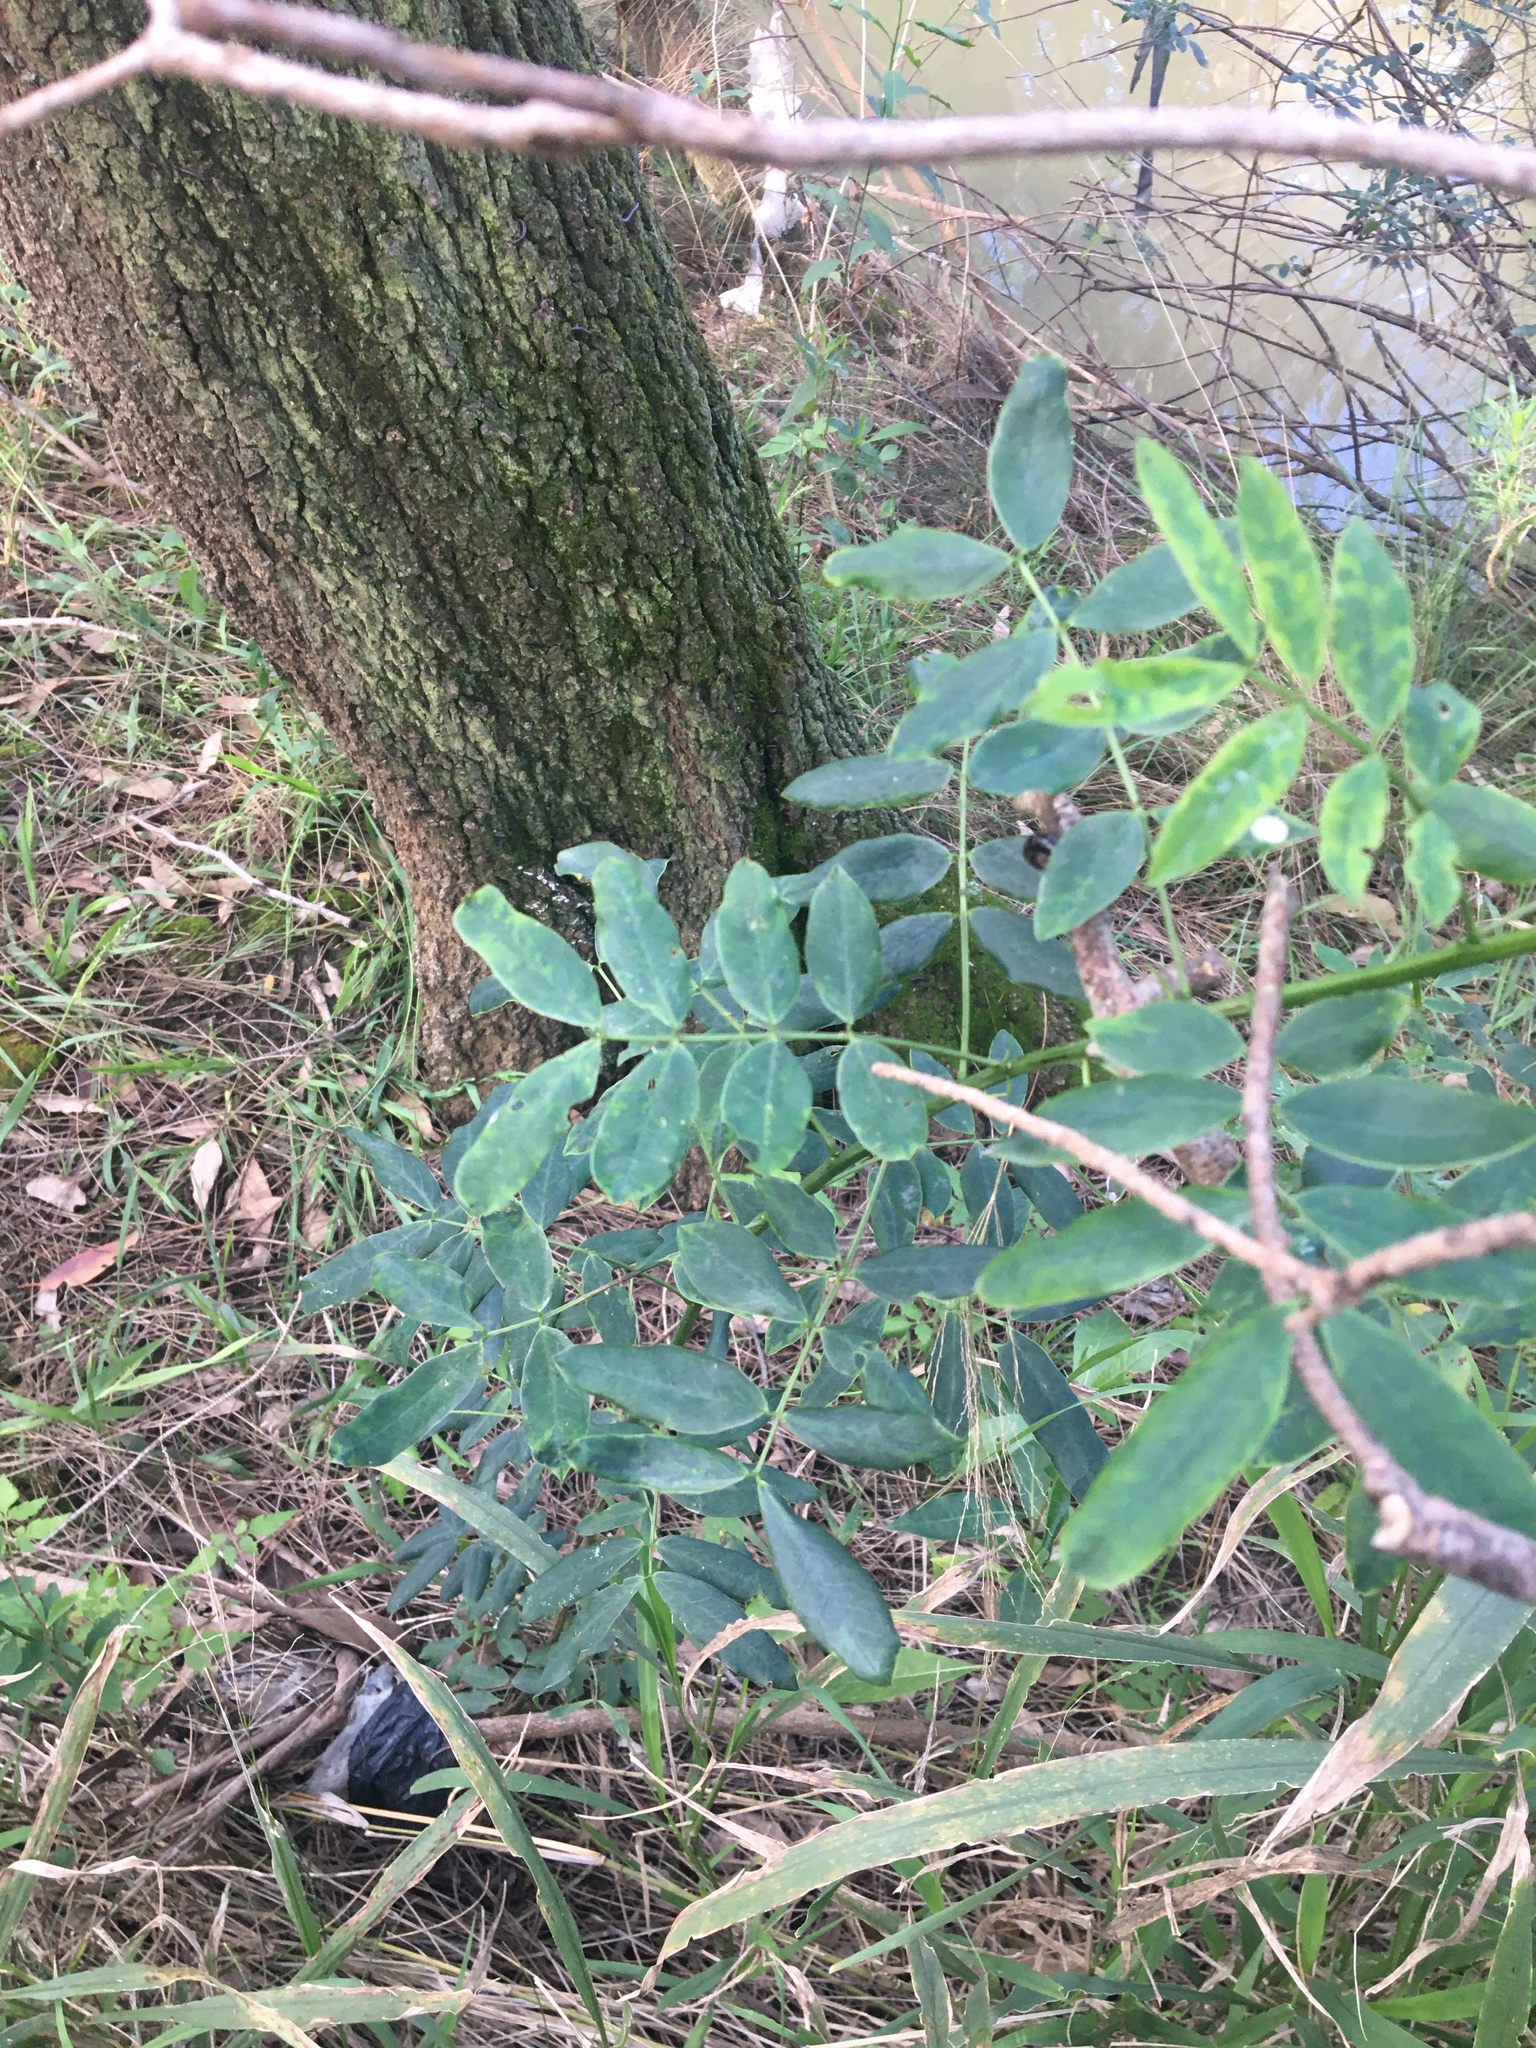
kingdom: Plantae
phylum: Tracheophyta
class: Magnoliopsida
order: Fabales
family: Fabaceae
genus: Senna
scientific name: Senna pendula
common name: Easter cassia
